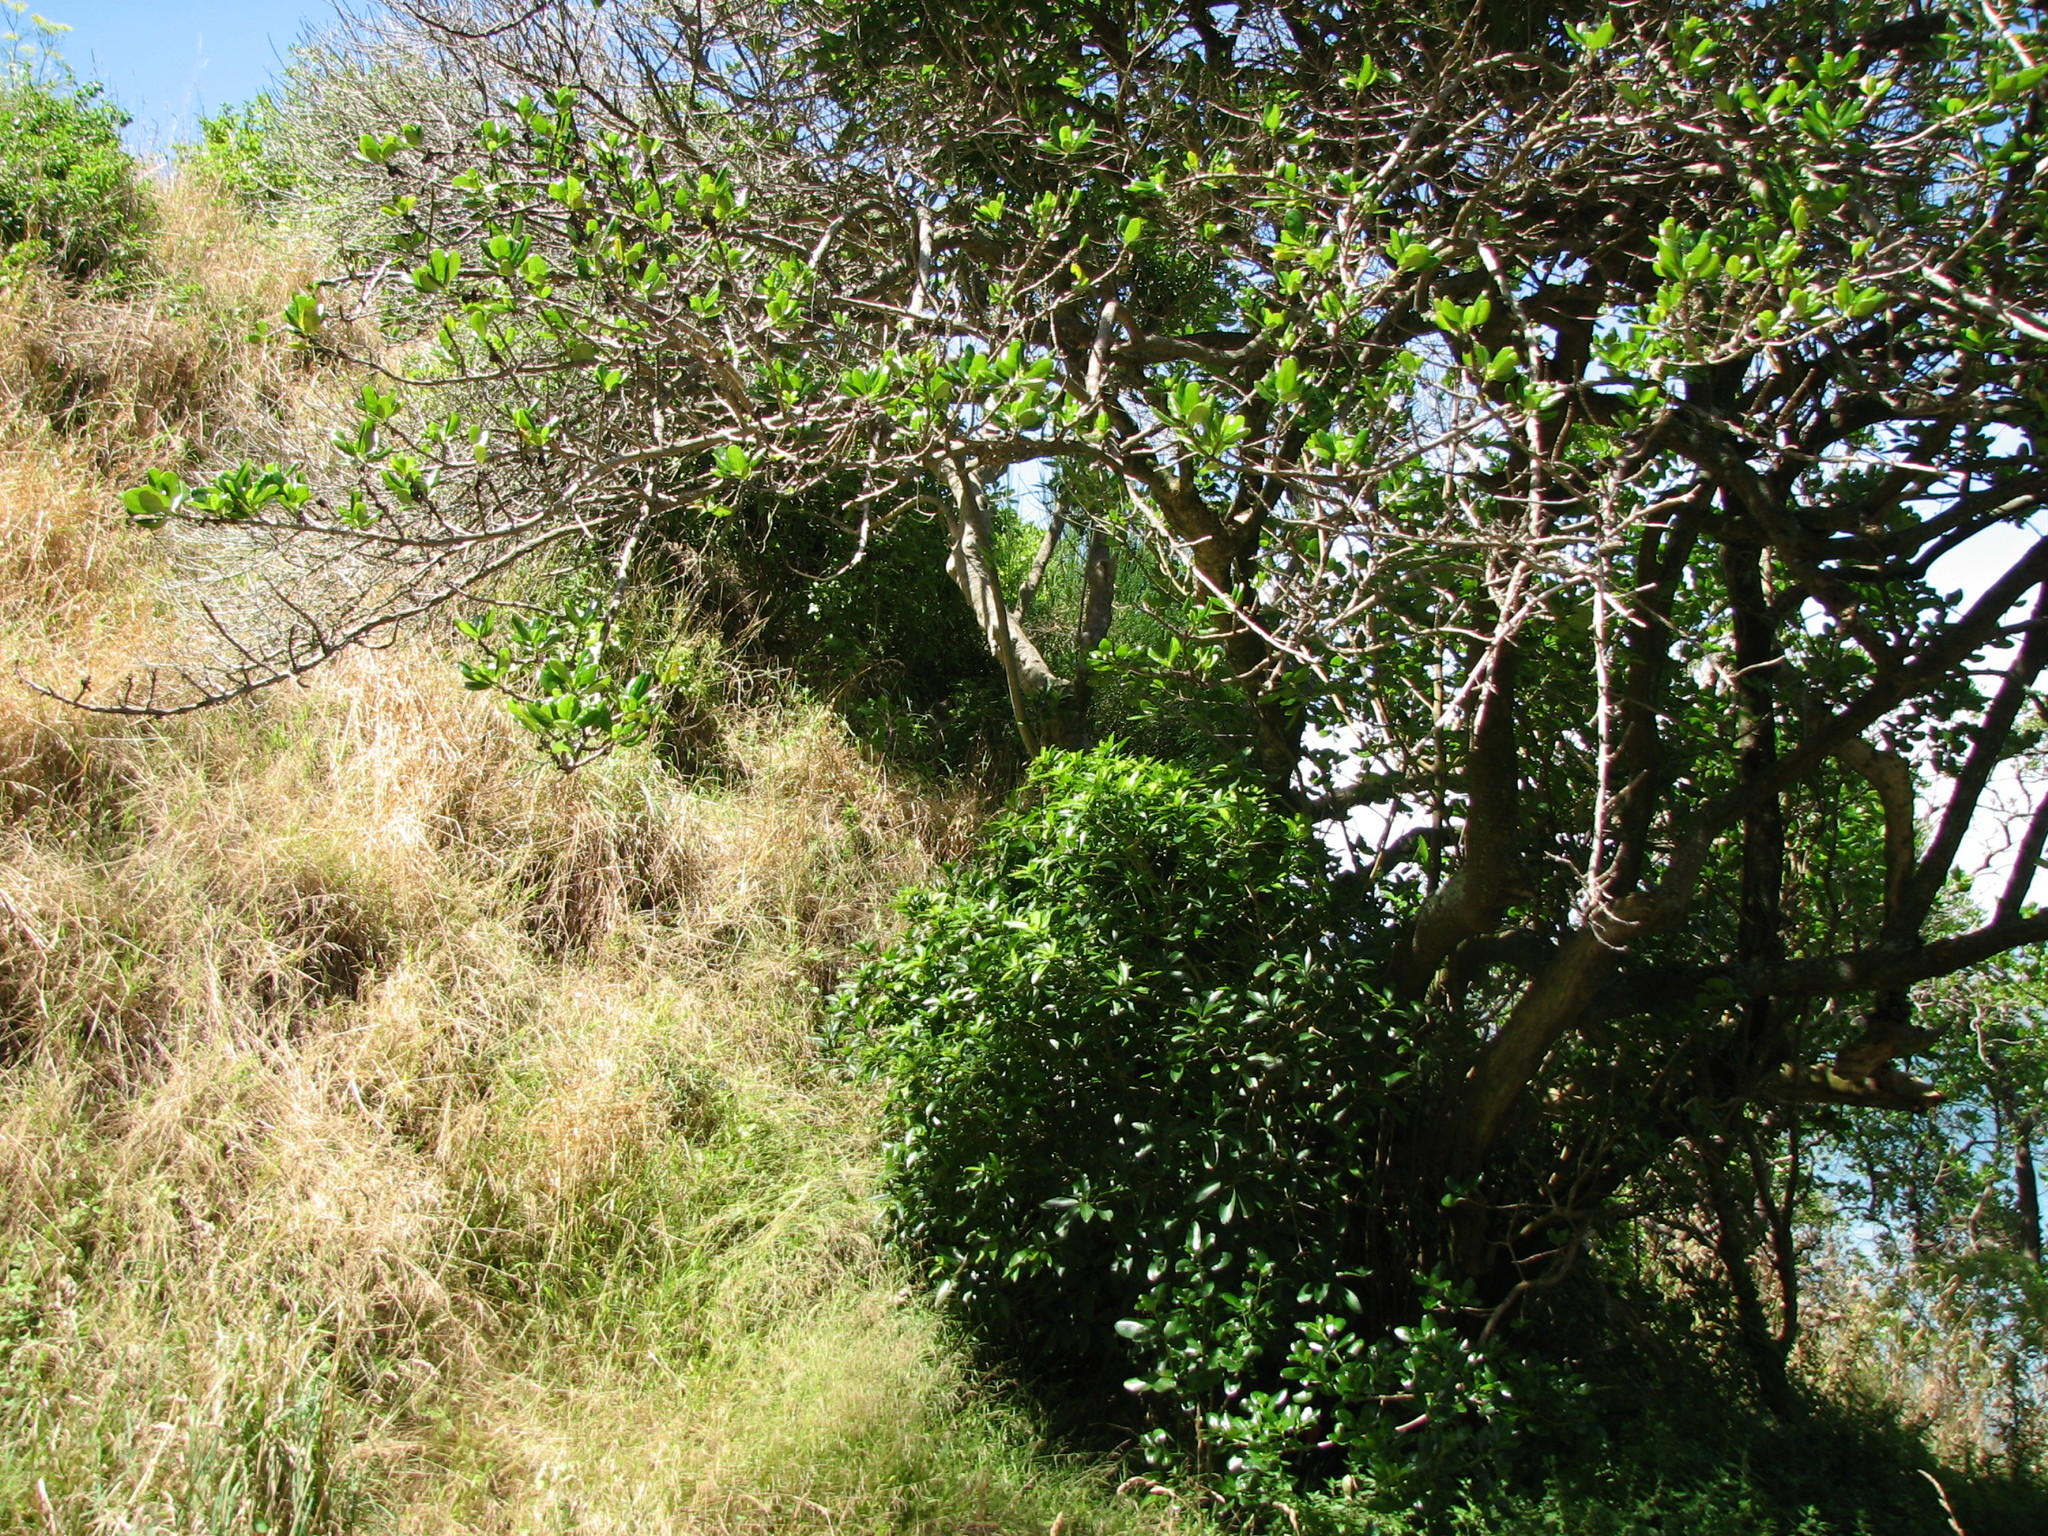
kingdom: Animalia
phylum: Chordata
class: Mammalia
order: Carnivora
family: Felidae
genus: Felis
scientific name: Felis catus
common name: Domestic cat
